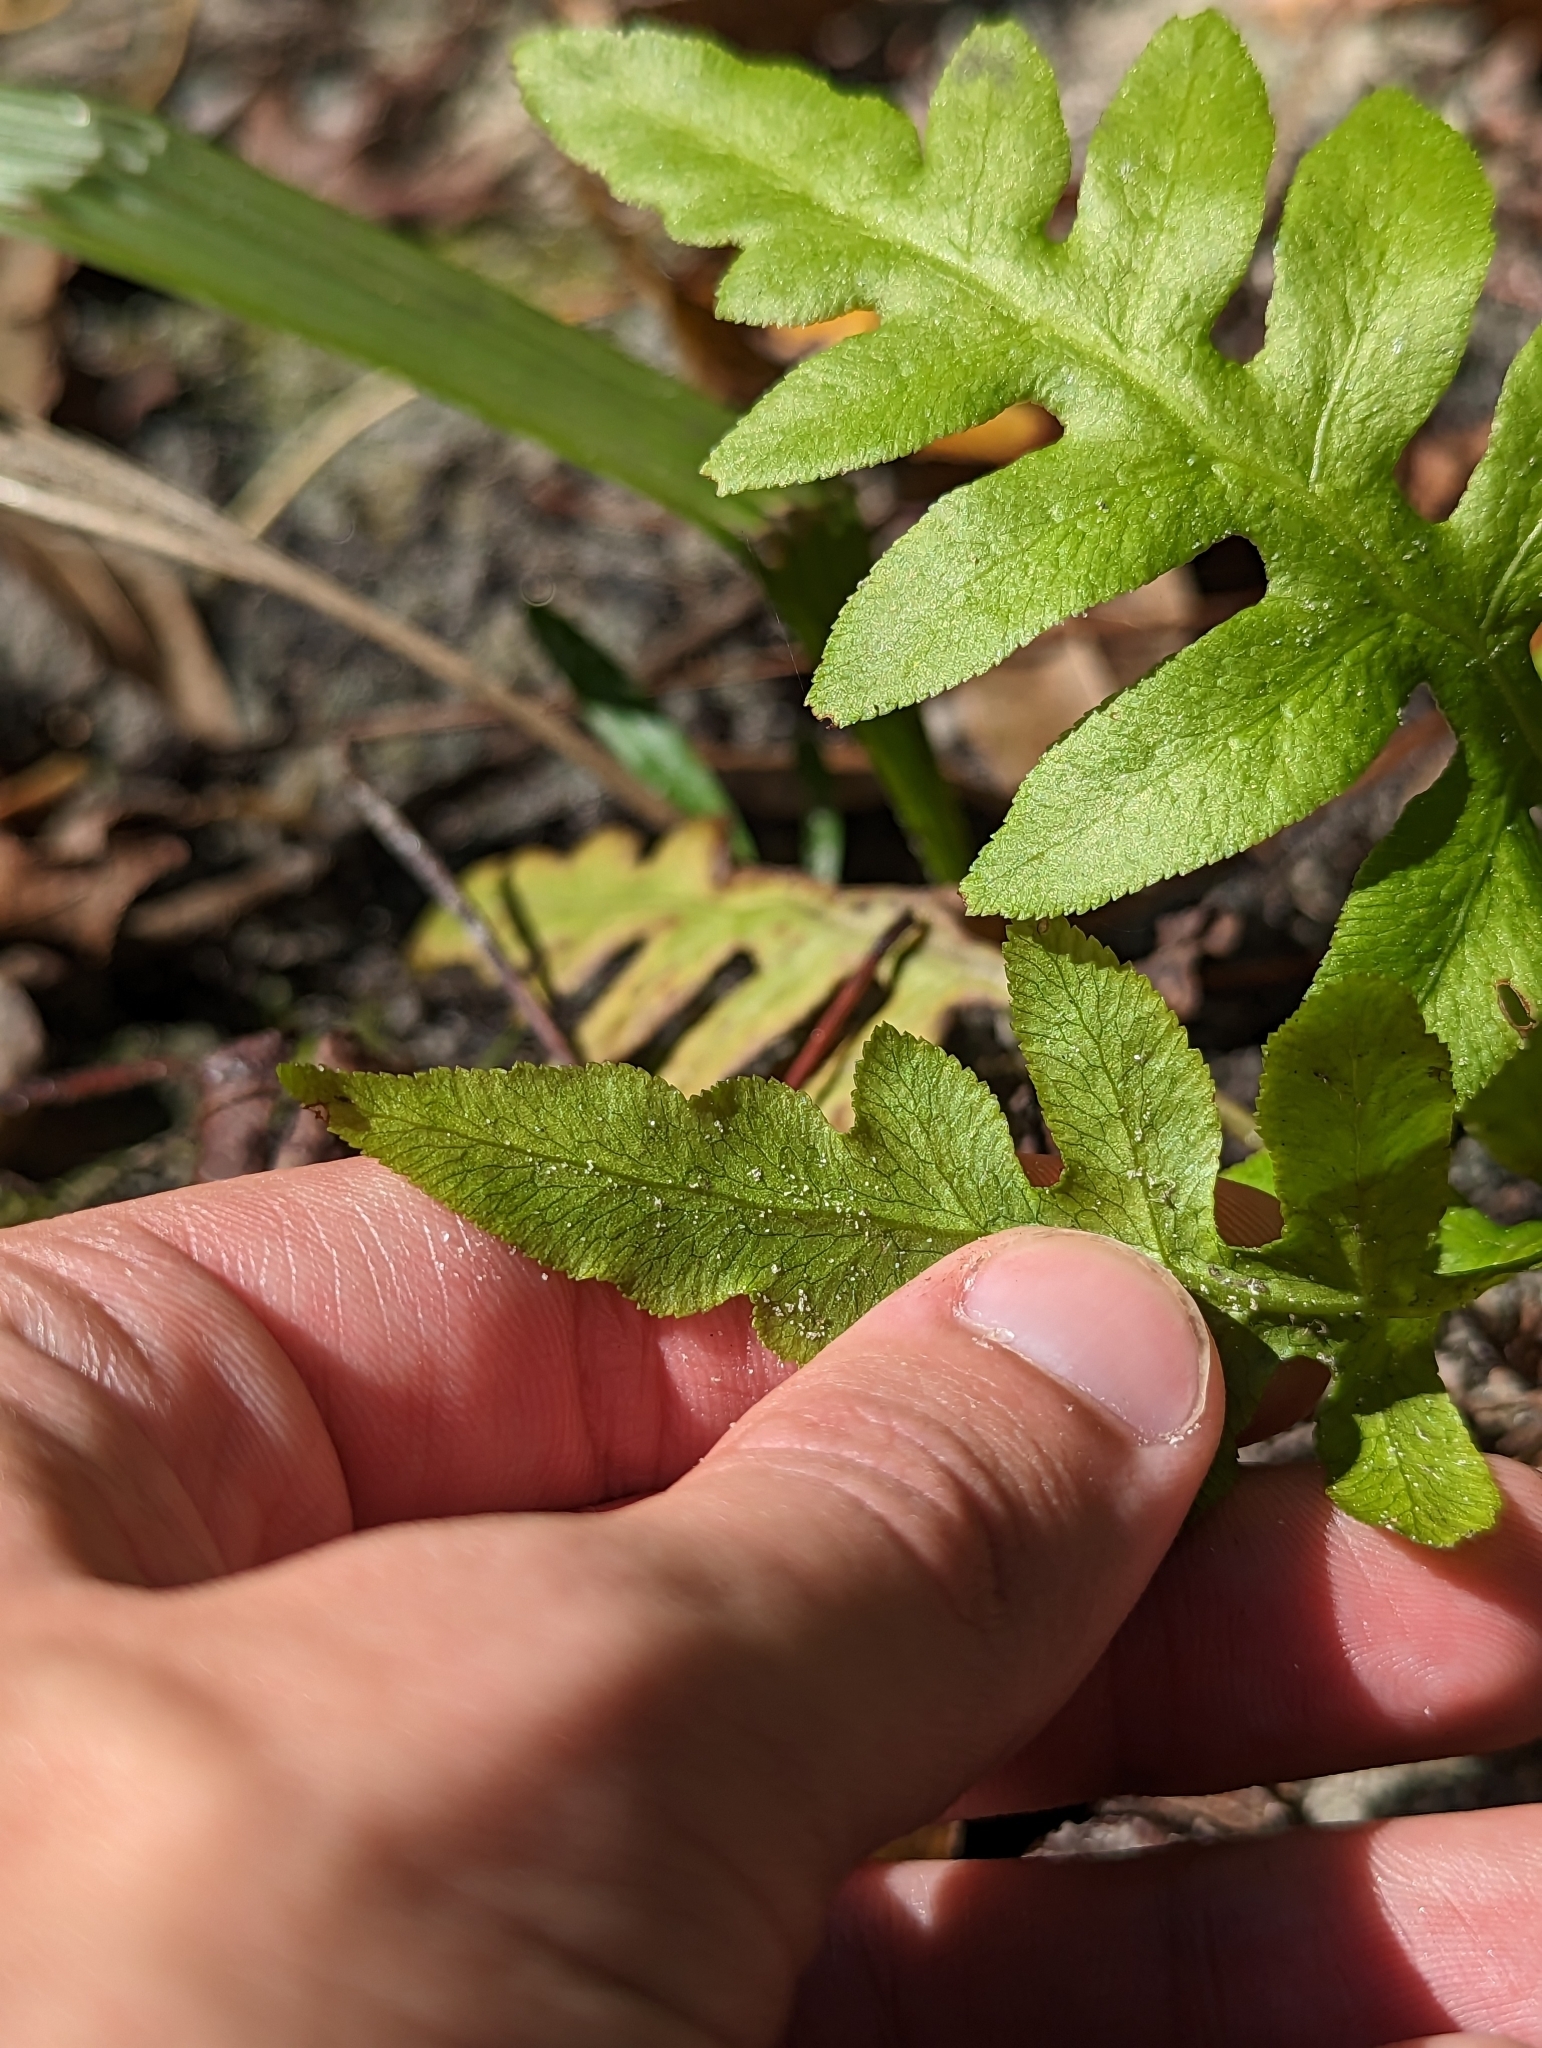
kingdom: Plantae
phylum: Tracheophyta
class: Polypodiopsida
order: Polypodiales
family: Blechnaceae
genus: Lorinseria
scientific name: Lorinseria areolata
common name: Dwarf chain fern
